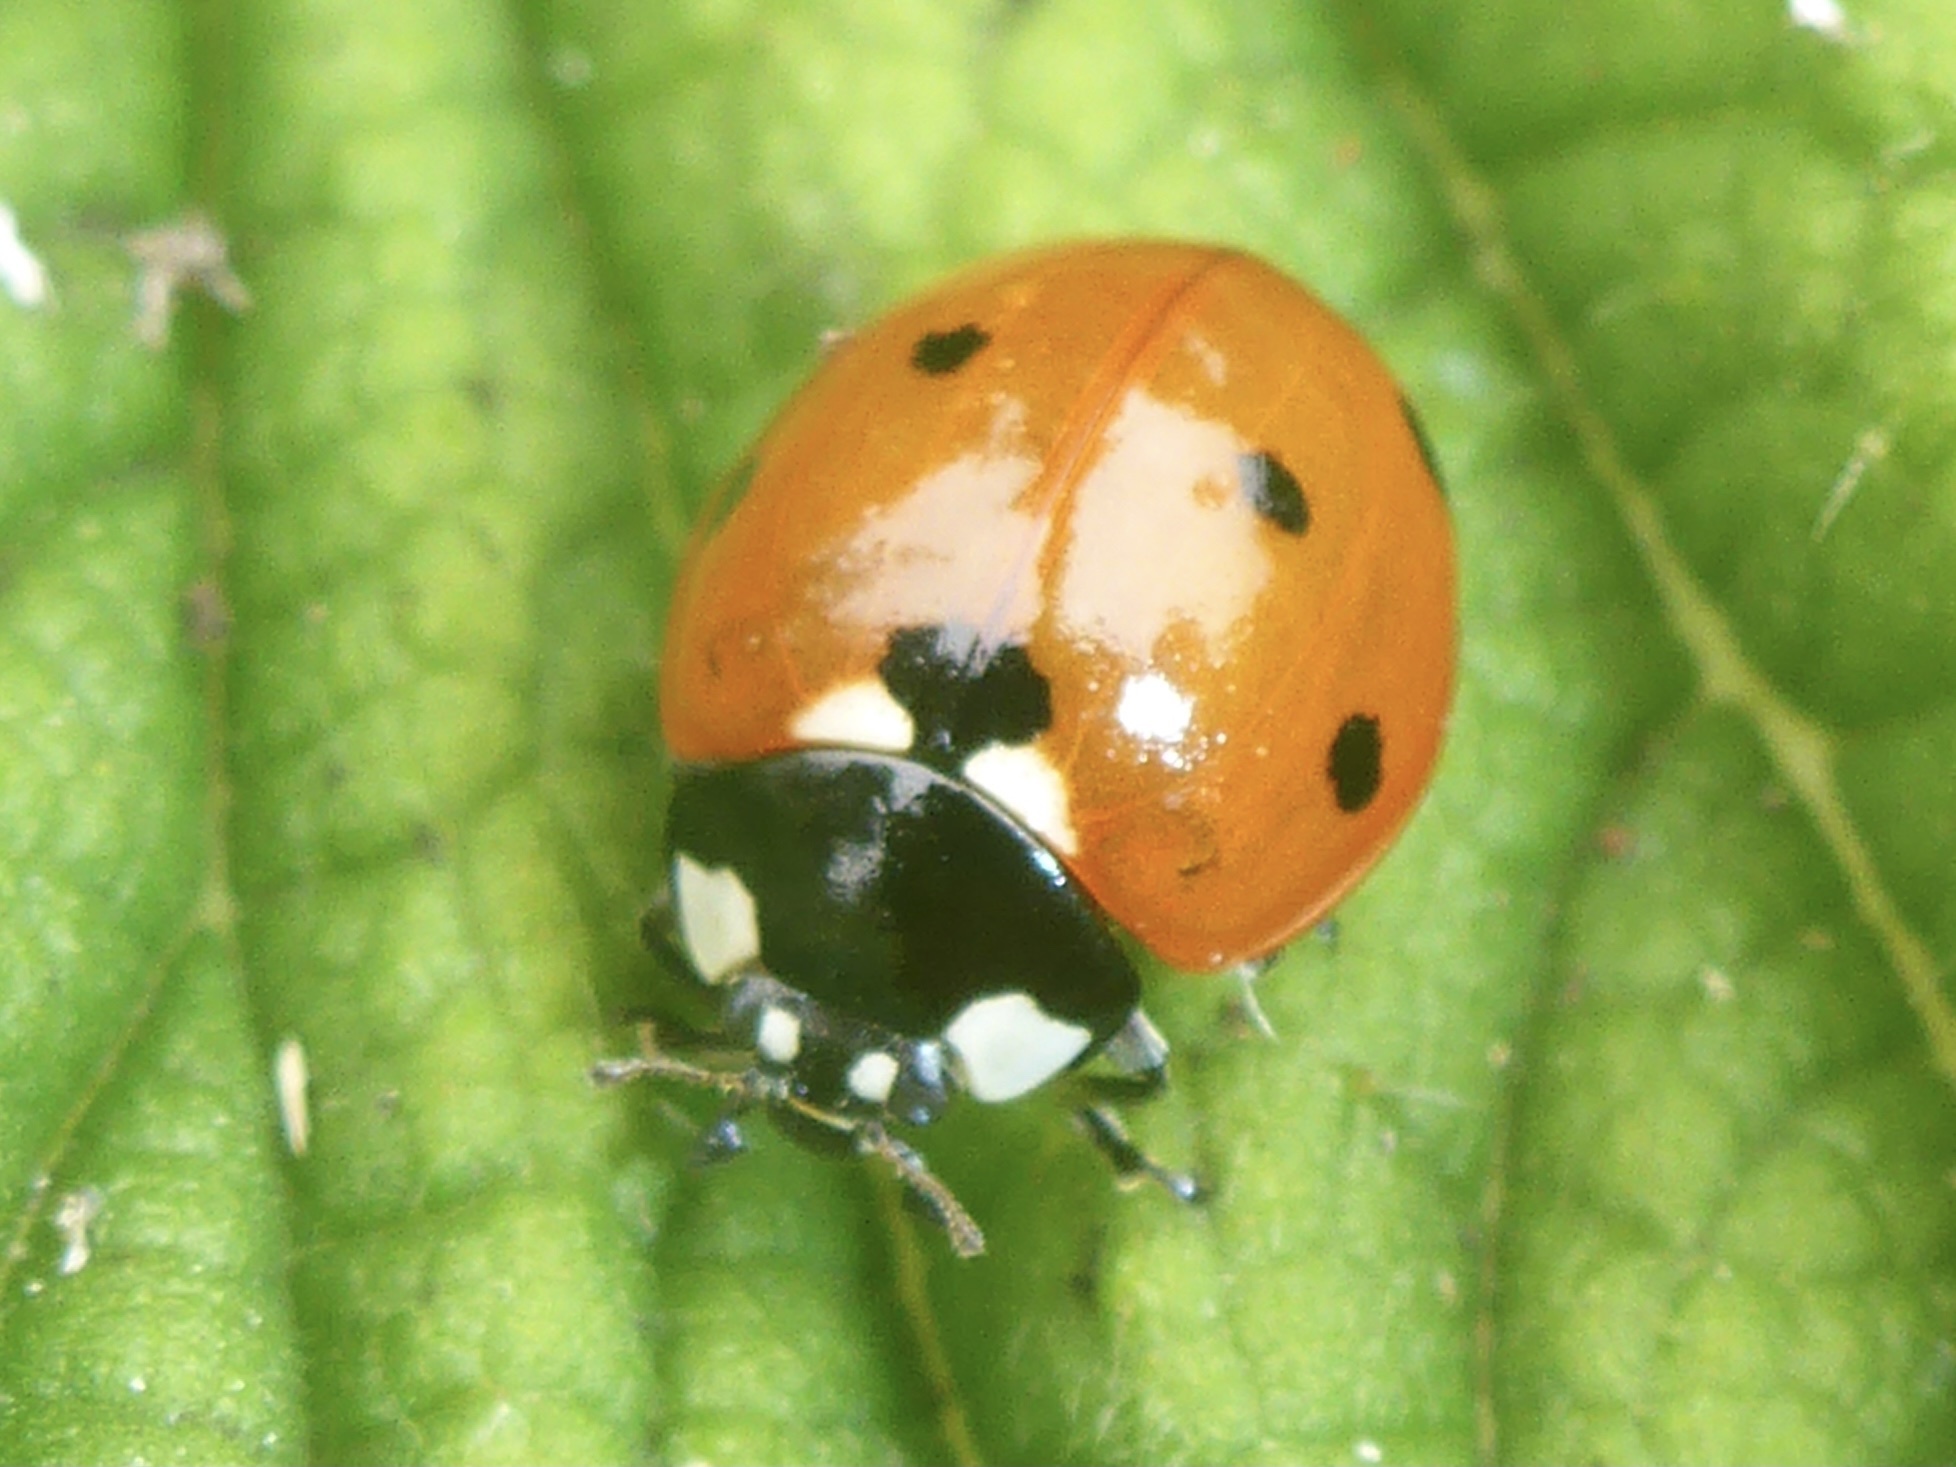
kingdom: Animalia
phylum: Arthropoda
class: Insecta
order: Coleoptera
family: Coccinellidae
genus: Coccinella
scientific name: Coccinella septempunctata
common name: Sevenspotted lady beetle
